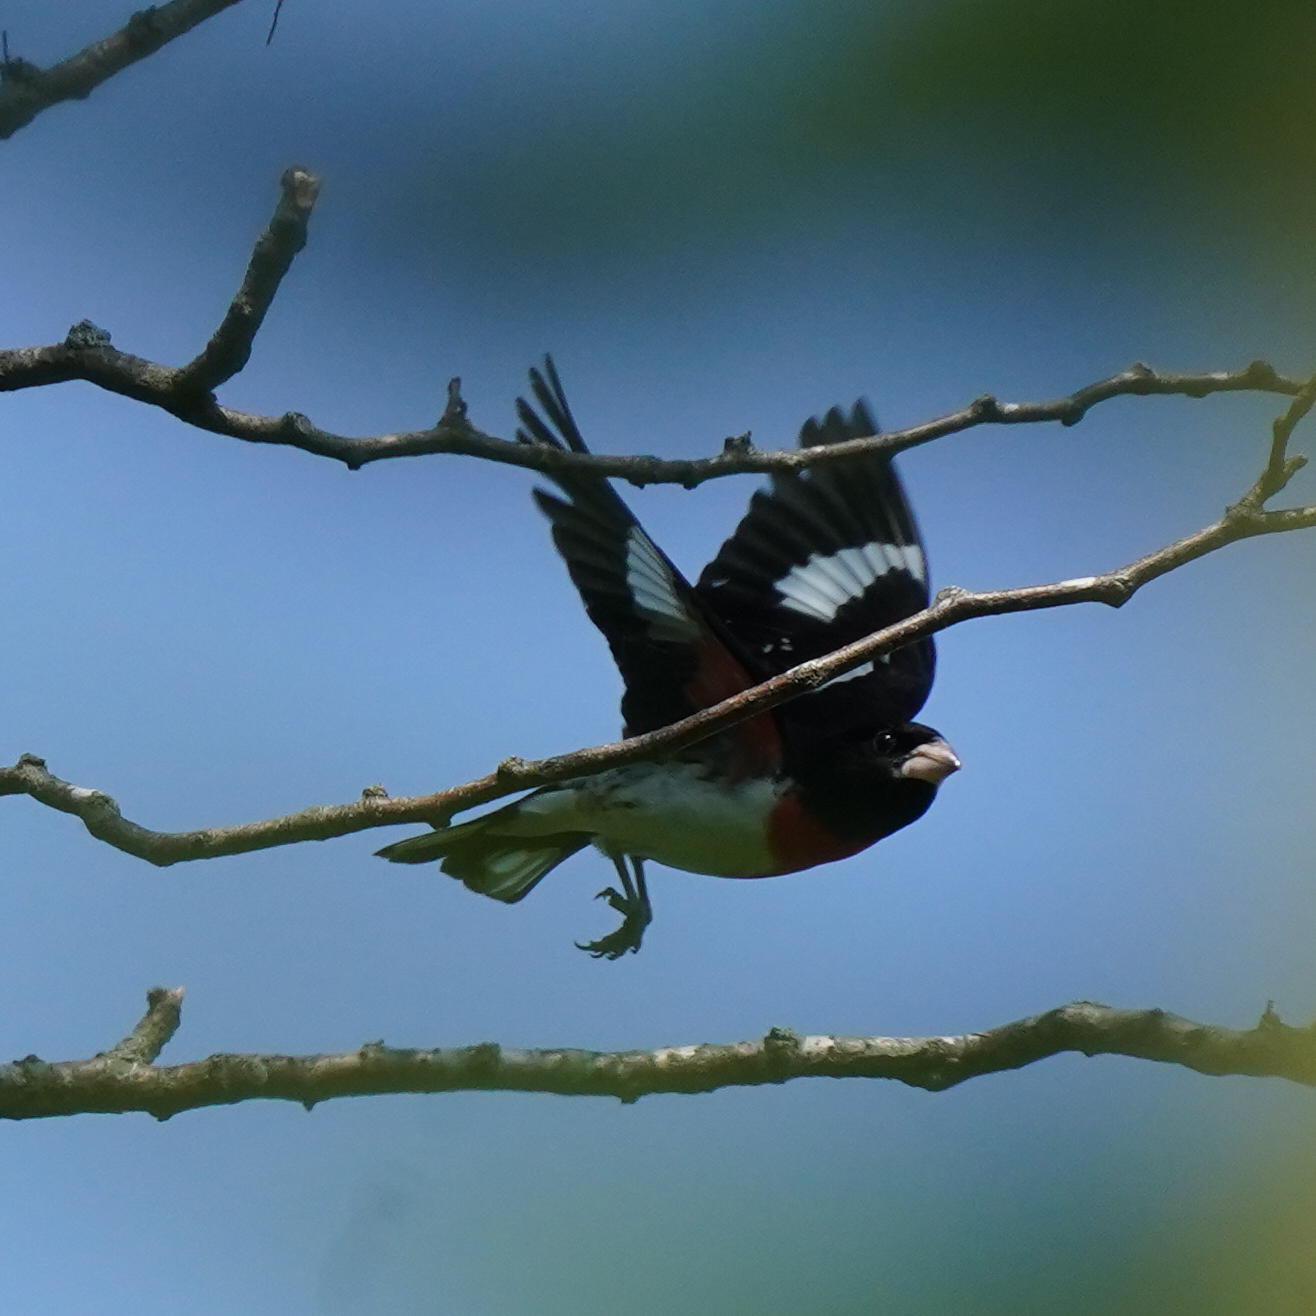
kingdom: Animalia
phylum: Chordata
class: Aves
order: Passeriformes
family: Cardinalidae
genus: Pheucticus
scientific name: Pheucticus ludovicianus
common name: Rose-breasted grosbeak
